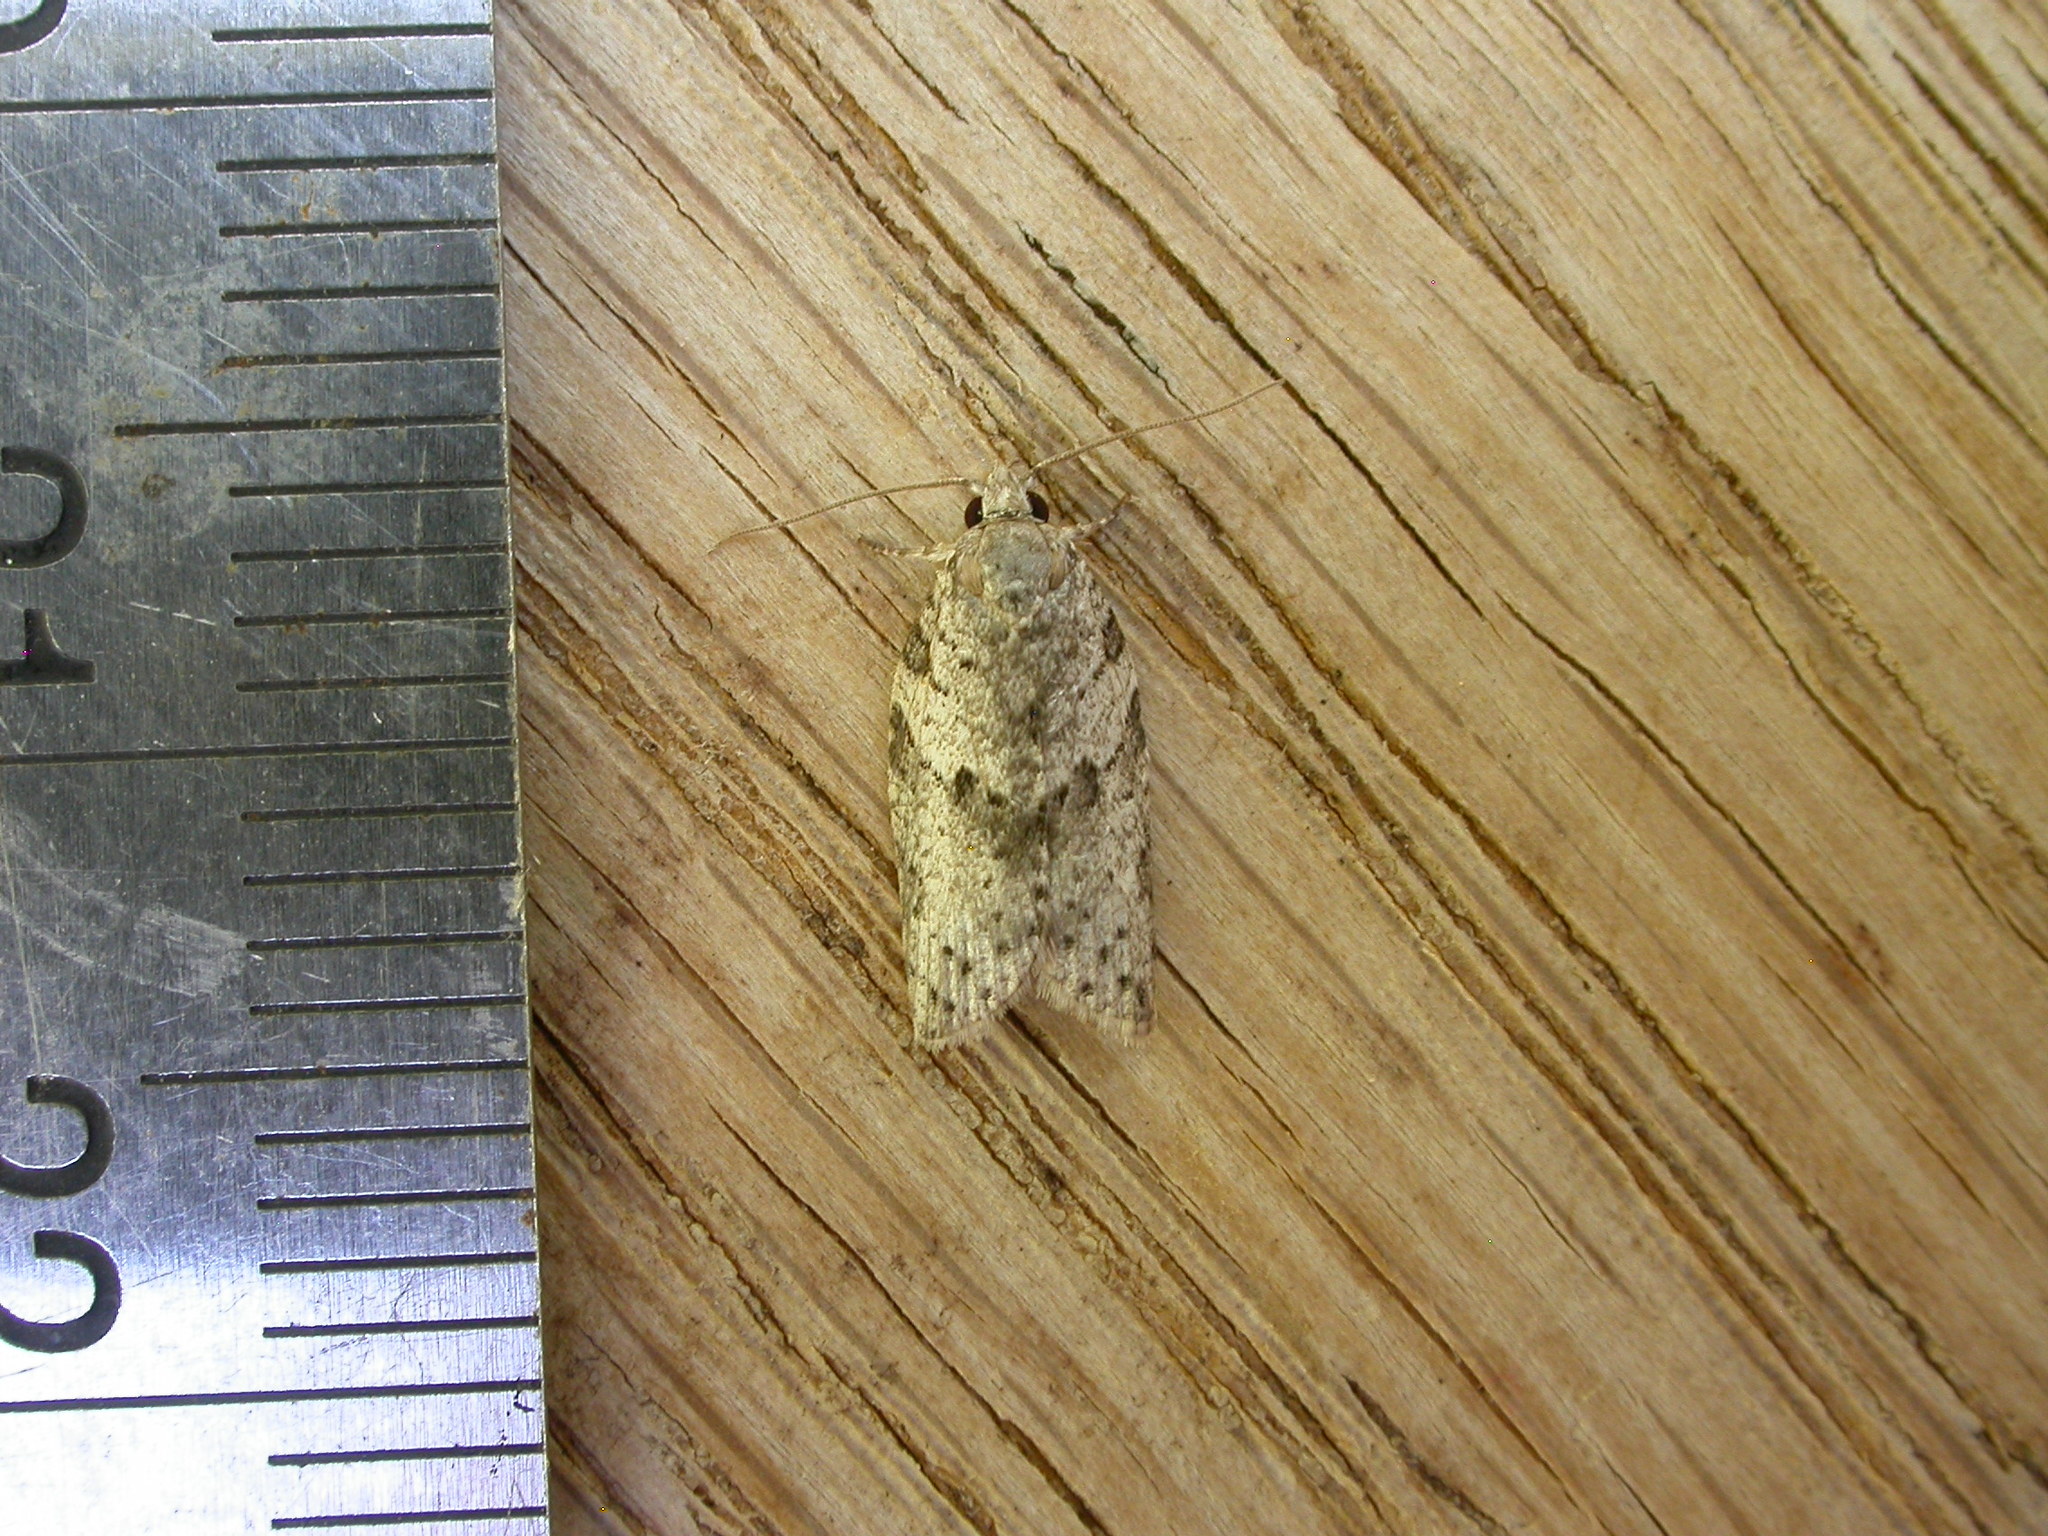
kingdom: Animalia
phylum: Arthropoda
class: Insecta
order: Lepidoptera
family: Tortricidae
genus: Isotenes
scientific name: Isotenes miserana
